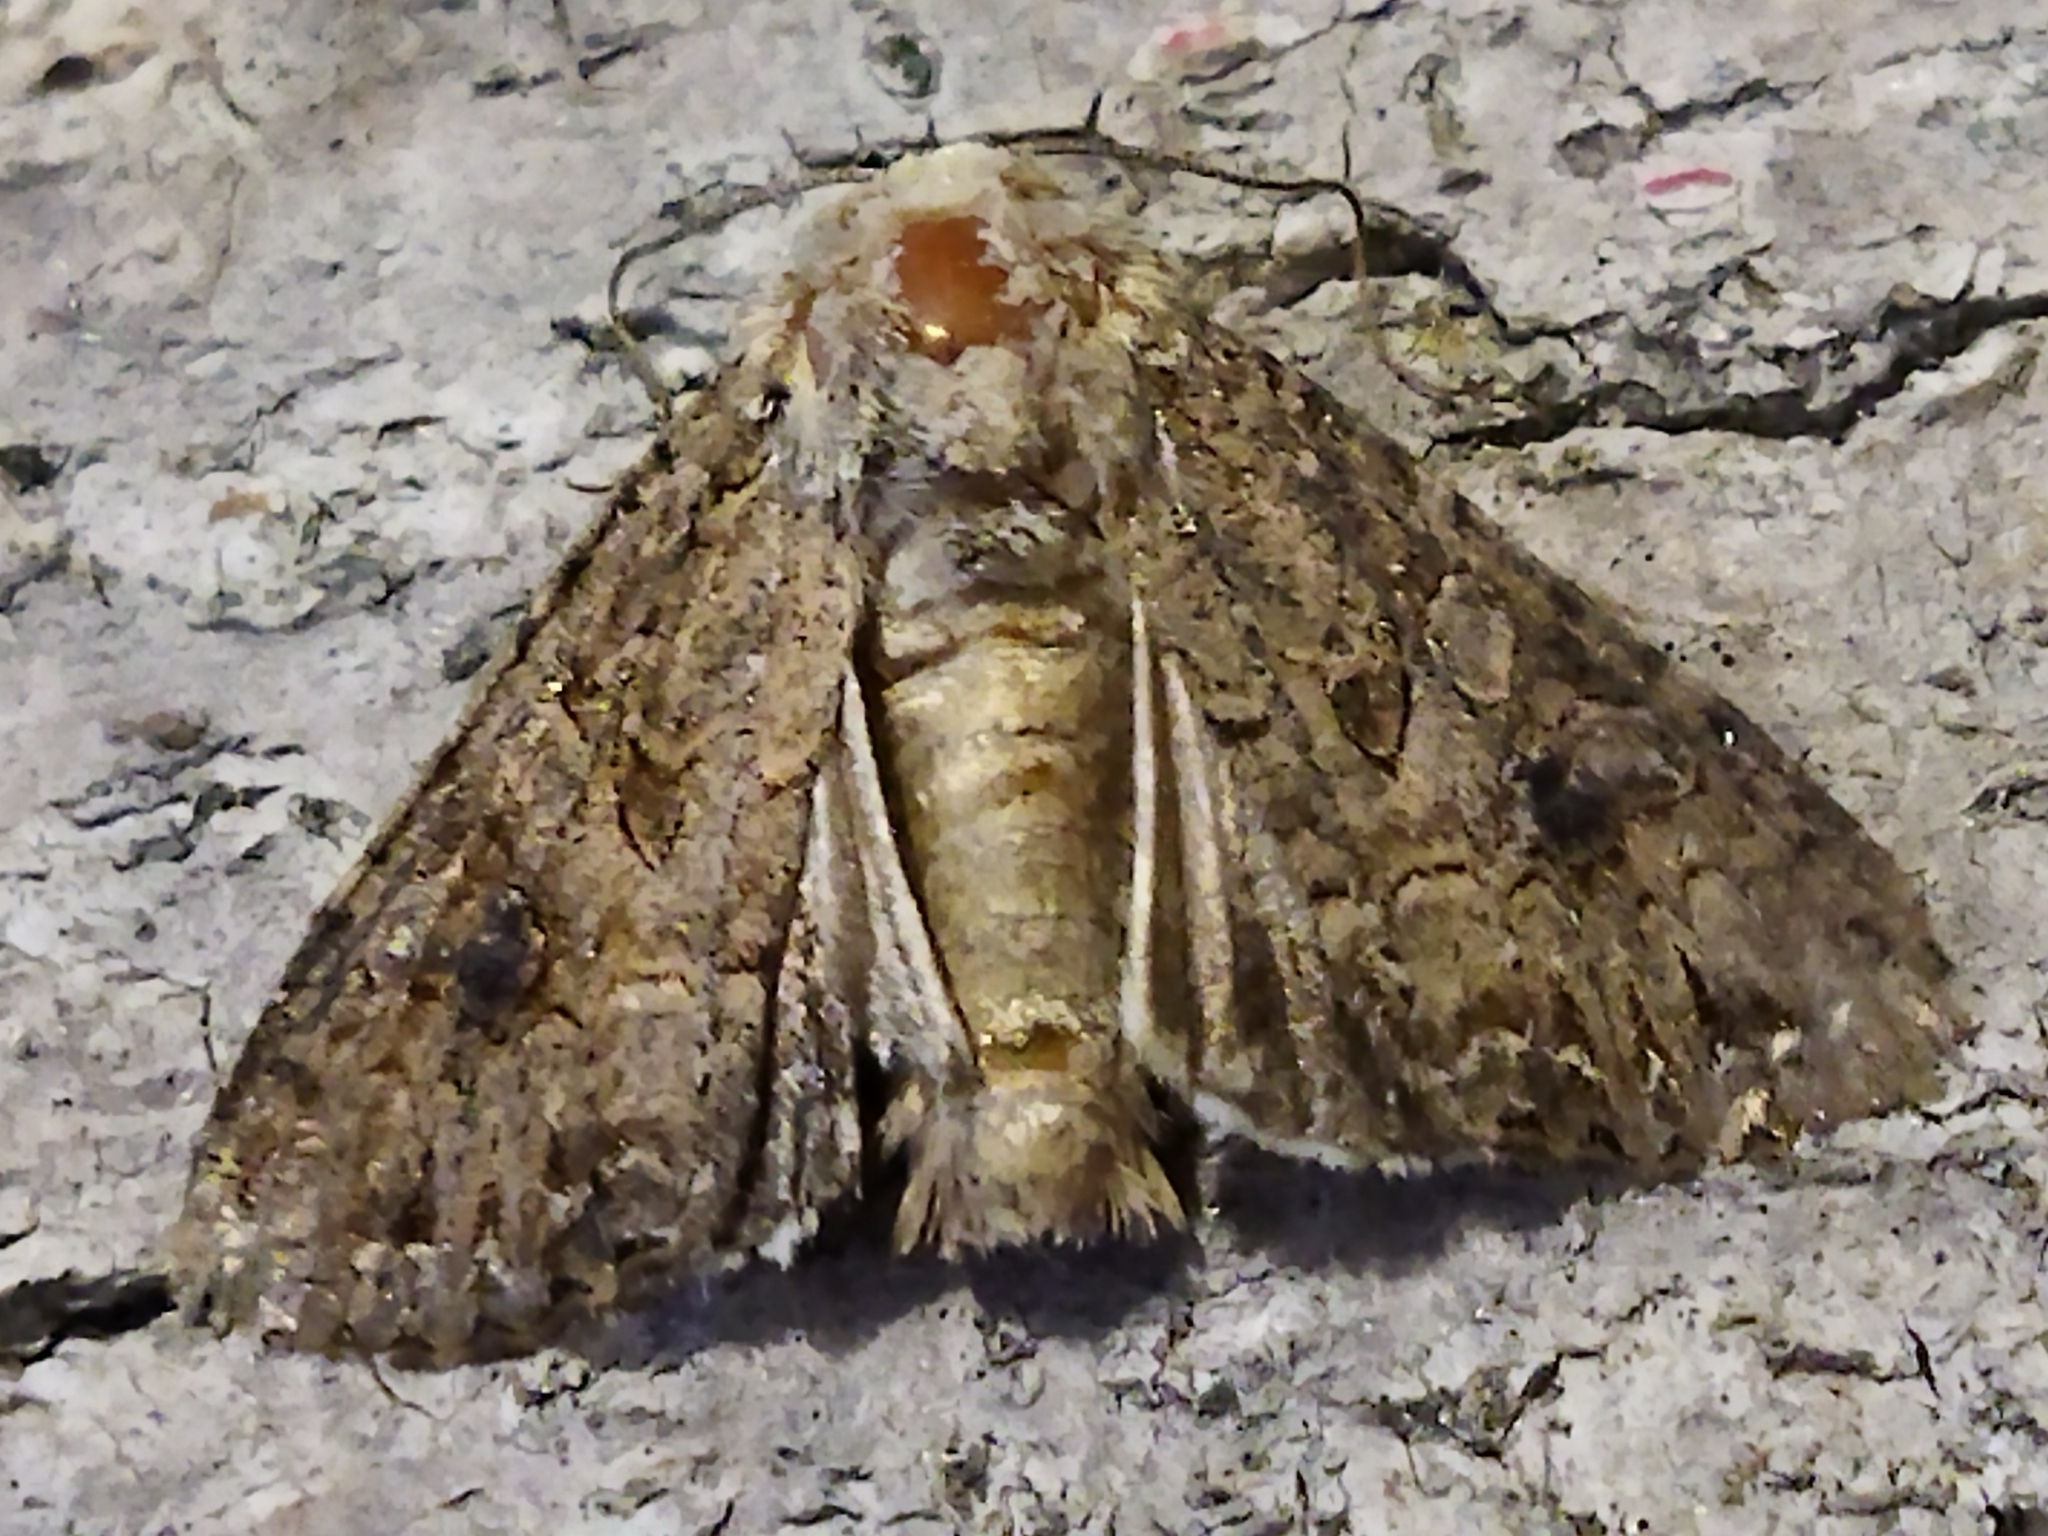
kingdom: Animalia
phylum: Arthropoda
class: Insecta
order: Lepidoptera
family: Noctuidae
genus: Anarta
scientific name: Anarta trifolii
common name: Clover cutworm moth
